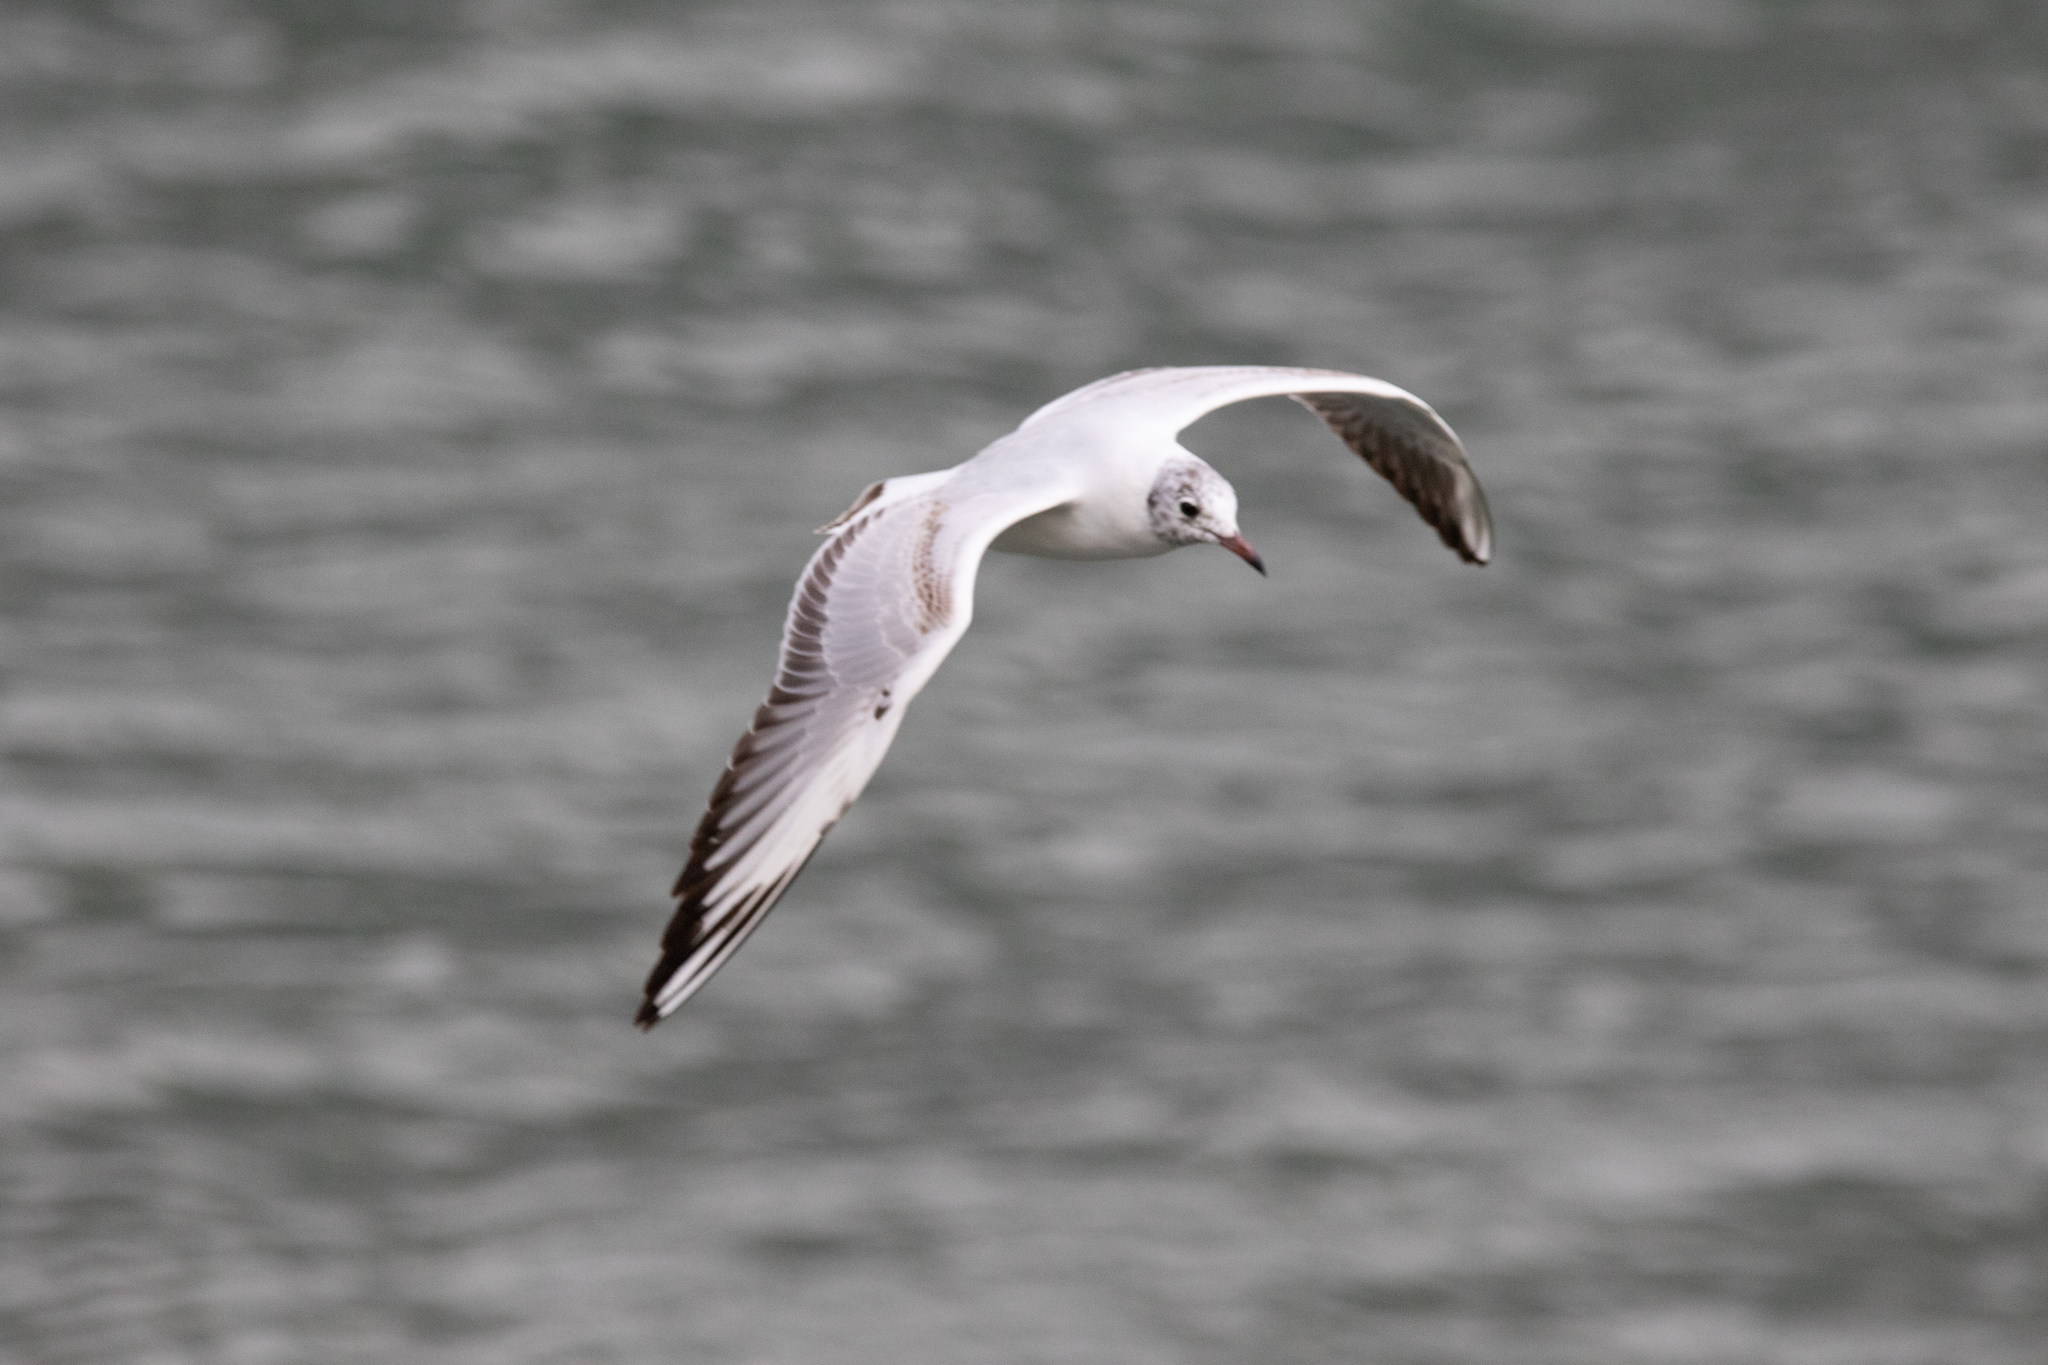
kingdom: Animalia
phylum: Chordata
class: Aves
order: Charadriiformes
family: Laridae
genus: Chroicocephalus
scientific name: Chroicocephalus ridibundus
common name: Black-headed gull
